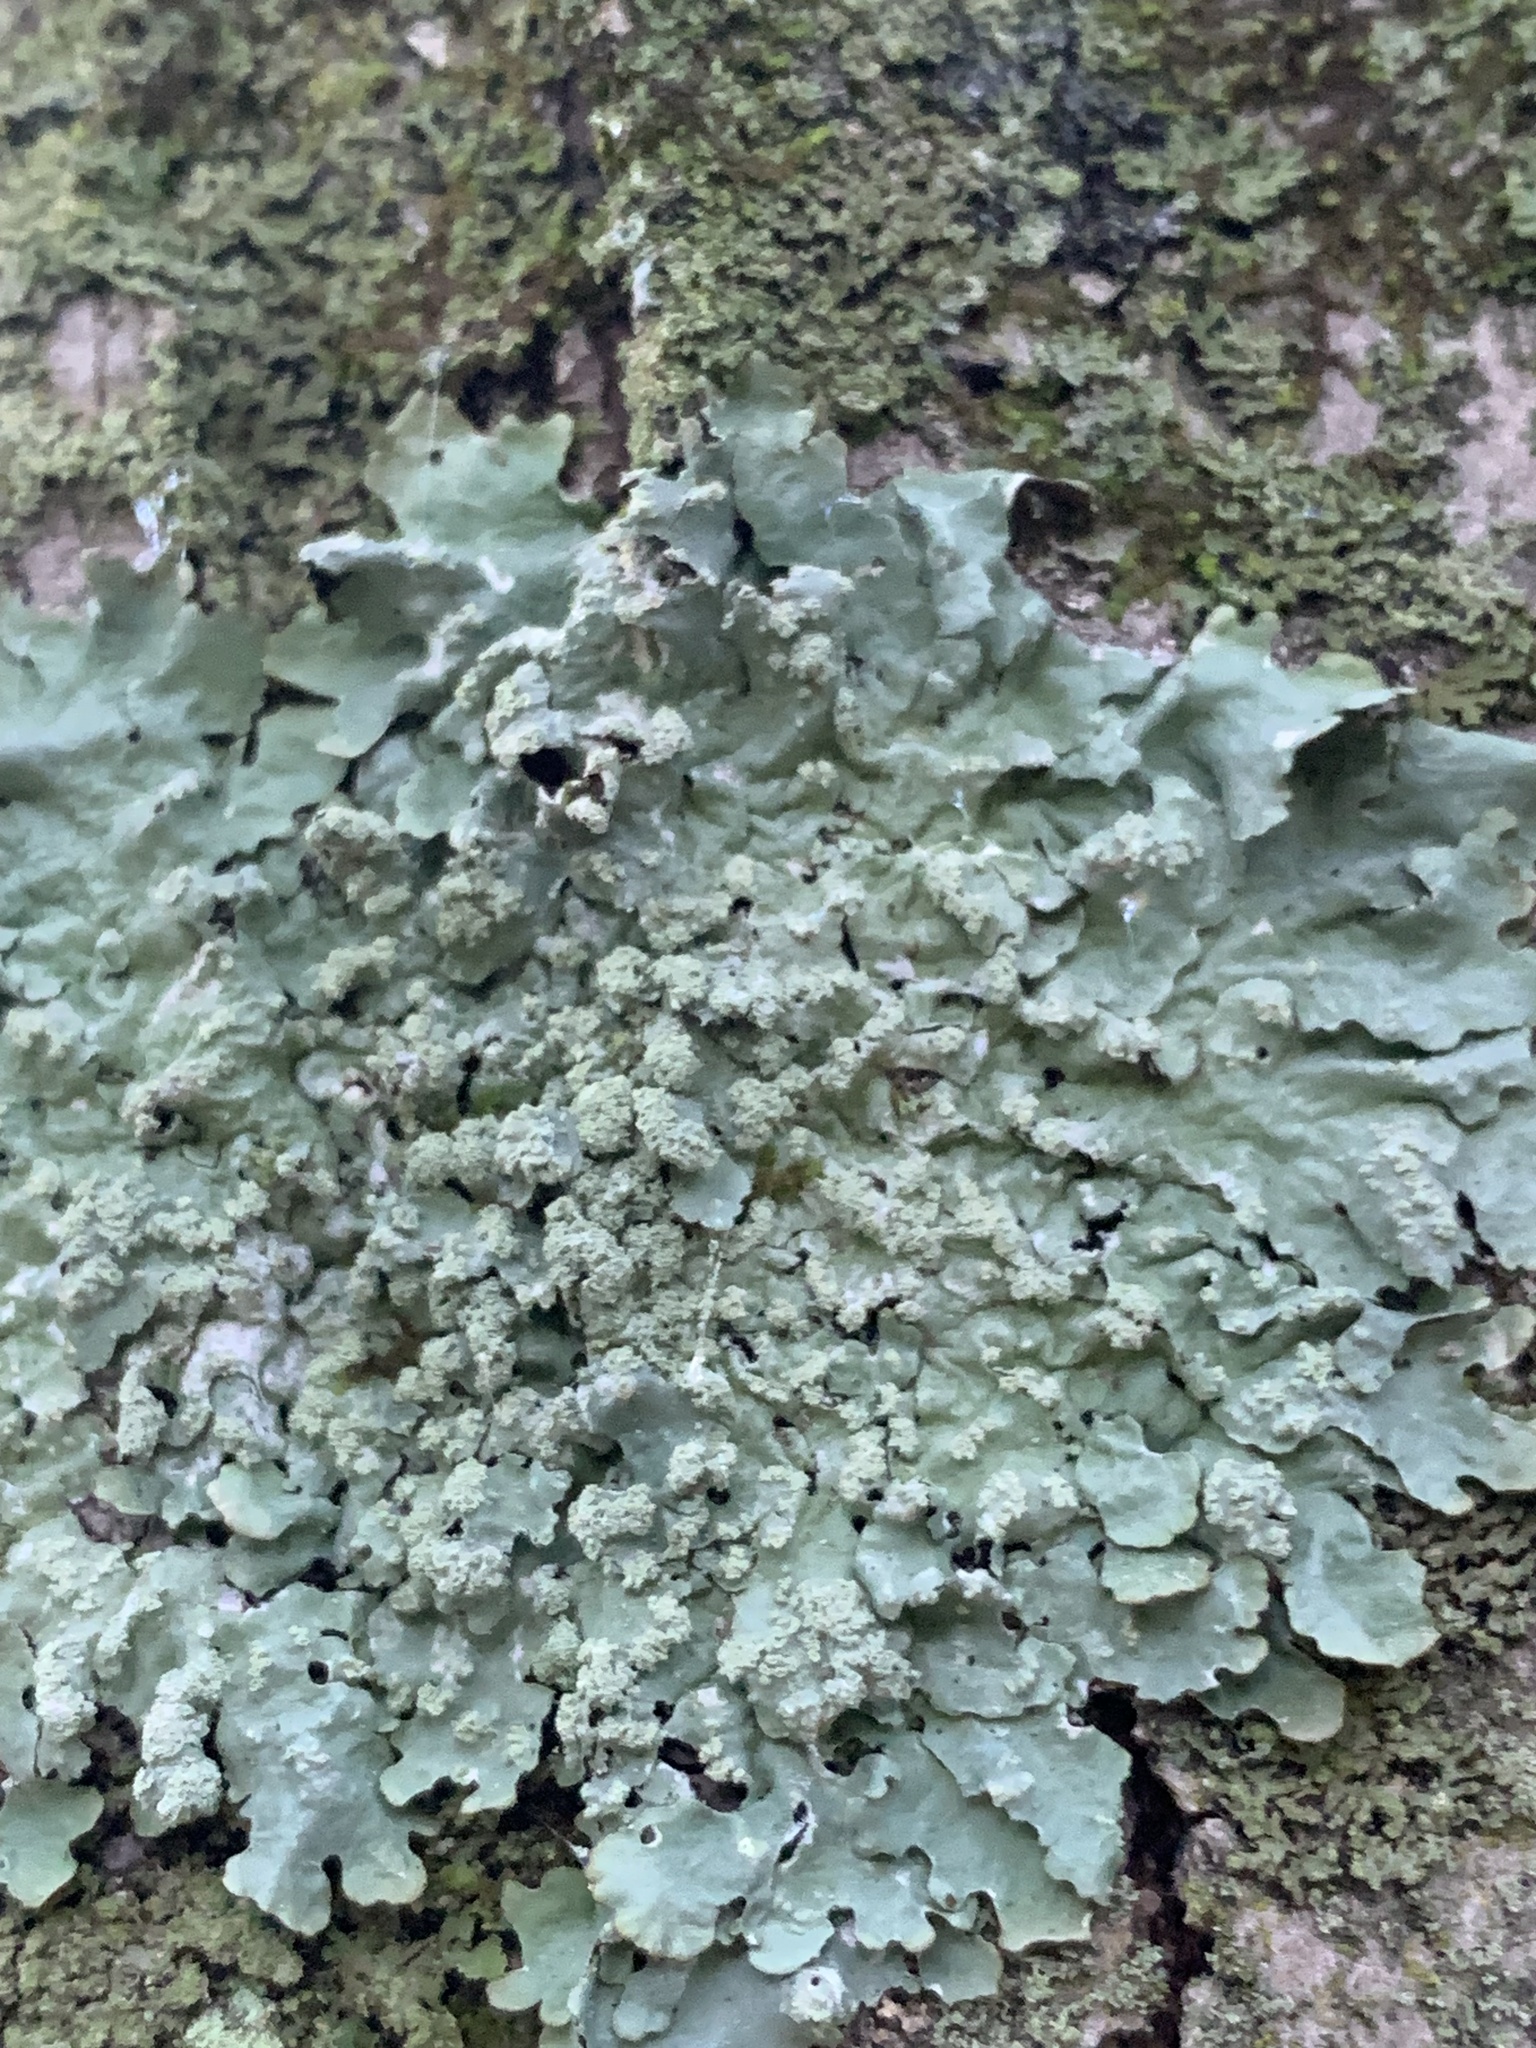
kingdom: Fungi
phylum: Ascomycota
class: Lecanoromycetes
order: Lecanorales
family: Parmeliaceae
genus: Myelochroa
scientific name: Myelochroa aurulenta
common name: Powdery axil-bristle lichen
